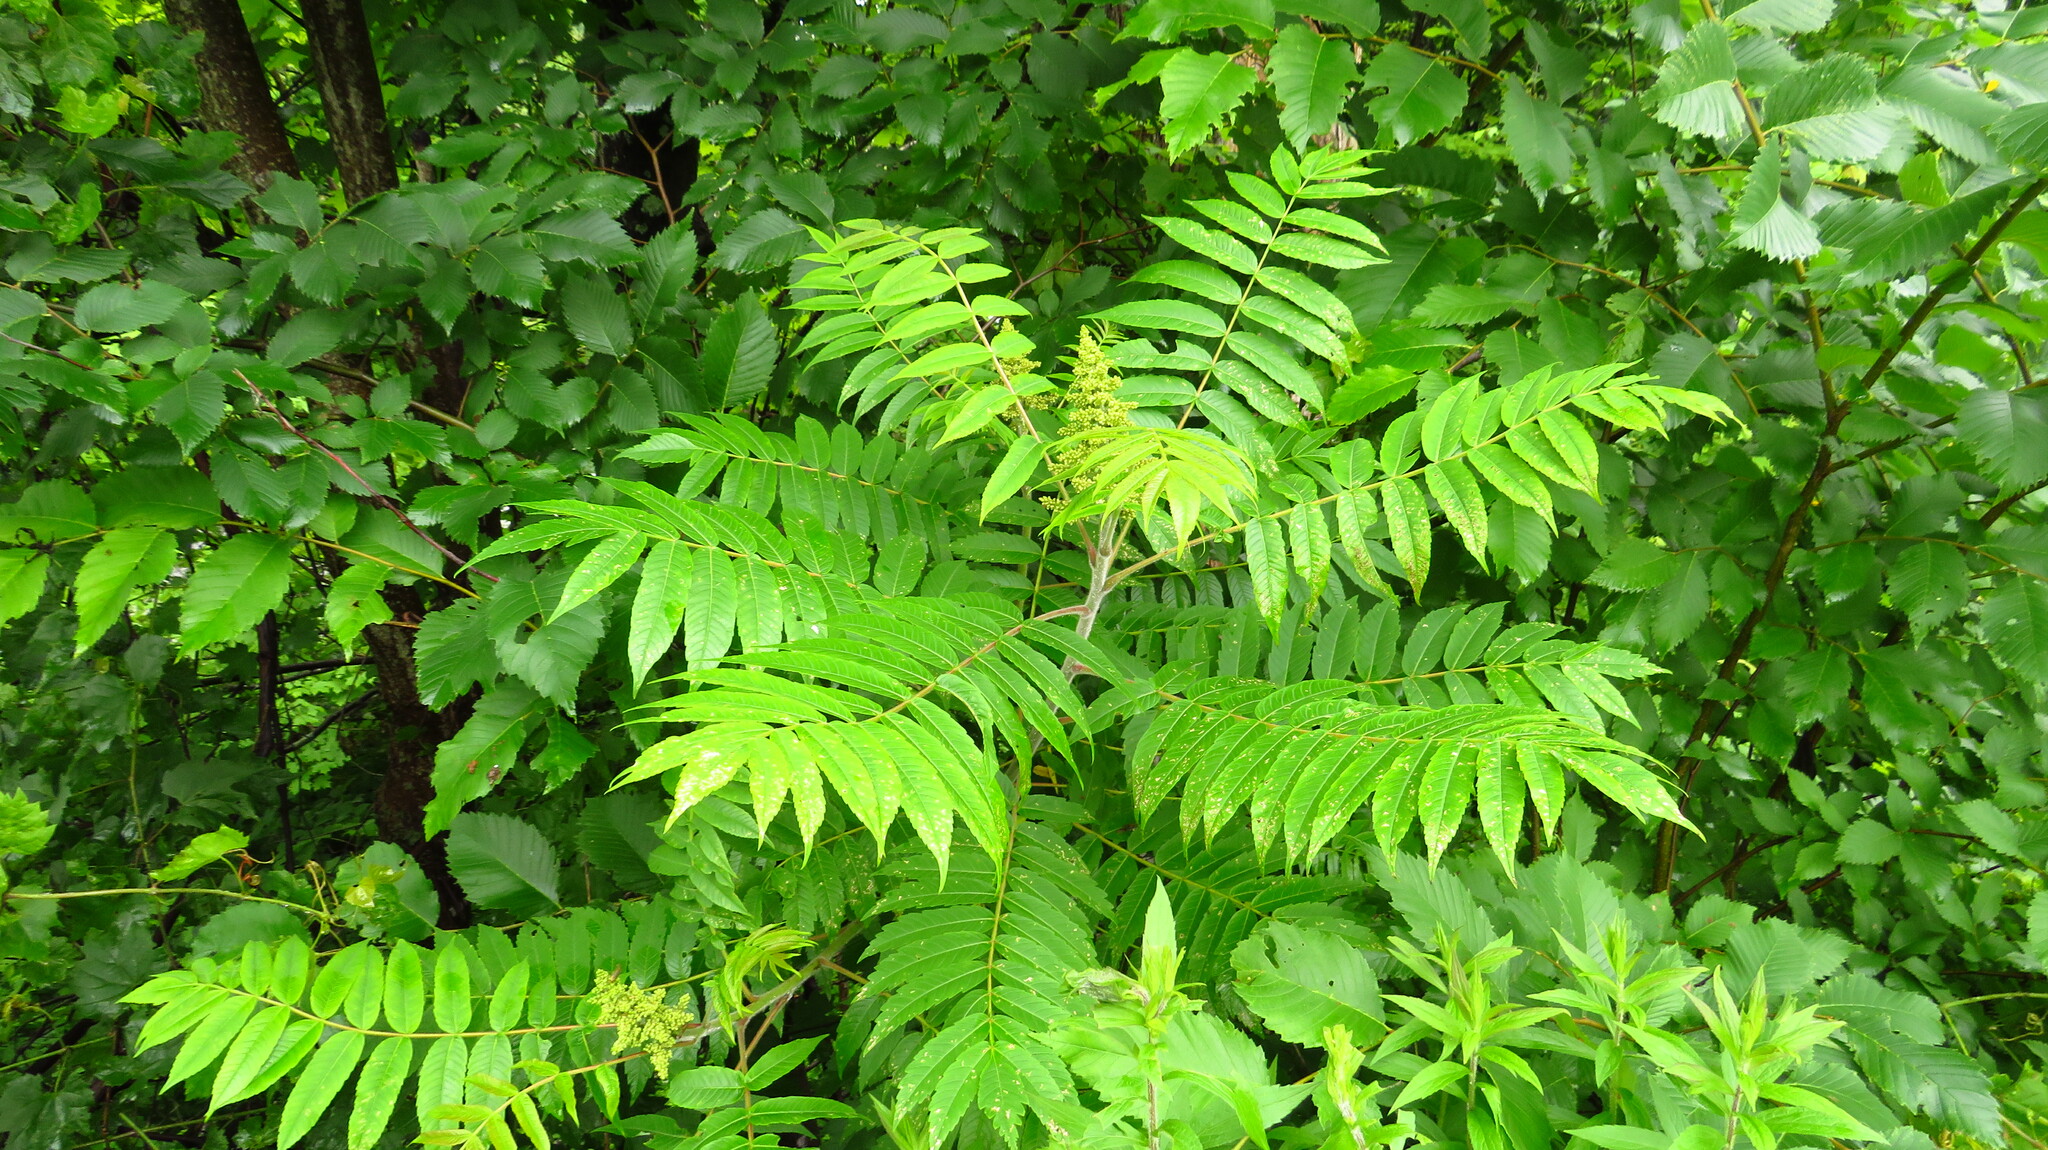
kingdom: Plantae
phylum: Tracheophyta
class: Magnoliopsida
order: Sapindales
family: Anacardiaceae
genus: Rhus
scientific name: Rhus typhina
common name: Staghorn sumac
